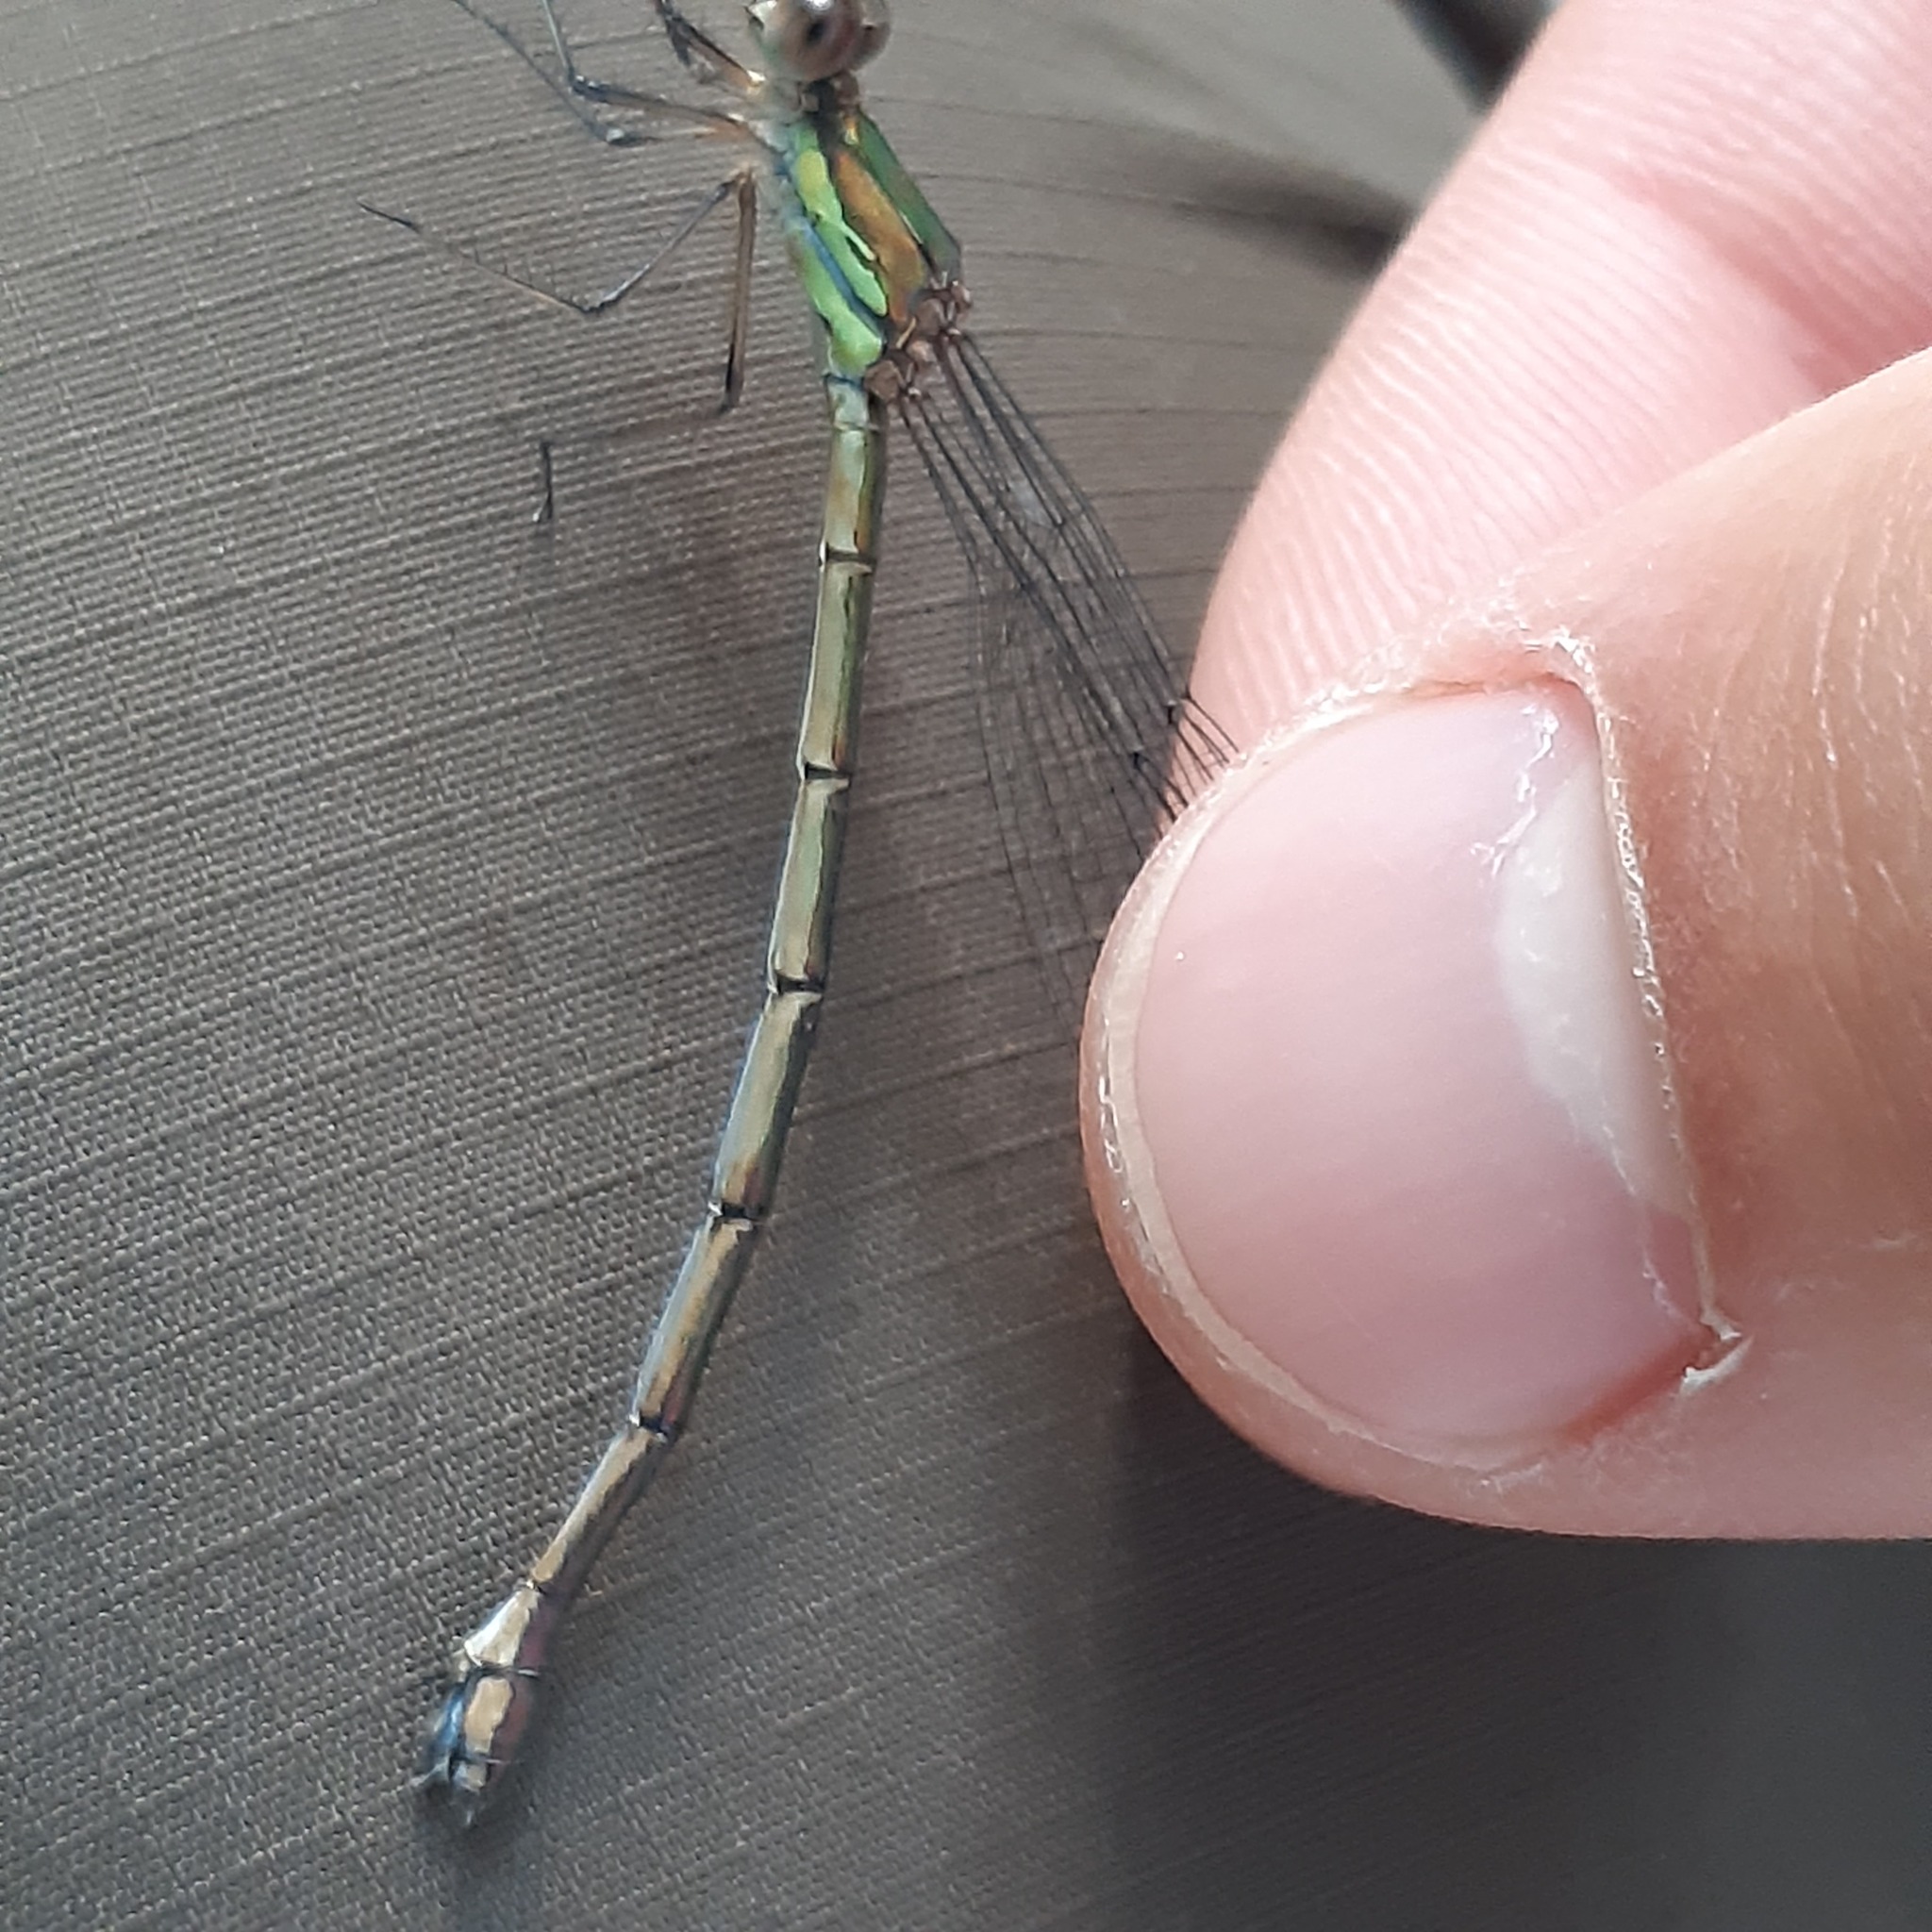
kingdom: Animalia
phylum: Arthropoda
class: Insecta
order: Odonata
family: Lestidae
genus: Chalcolestes
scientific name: Chalcolestes viridis
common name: Green emerald damselfly
